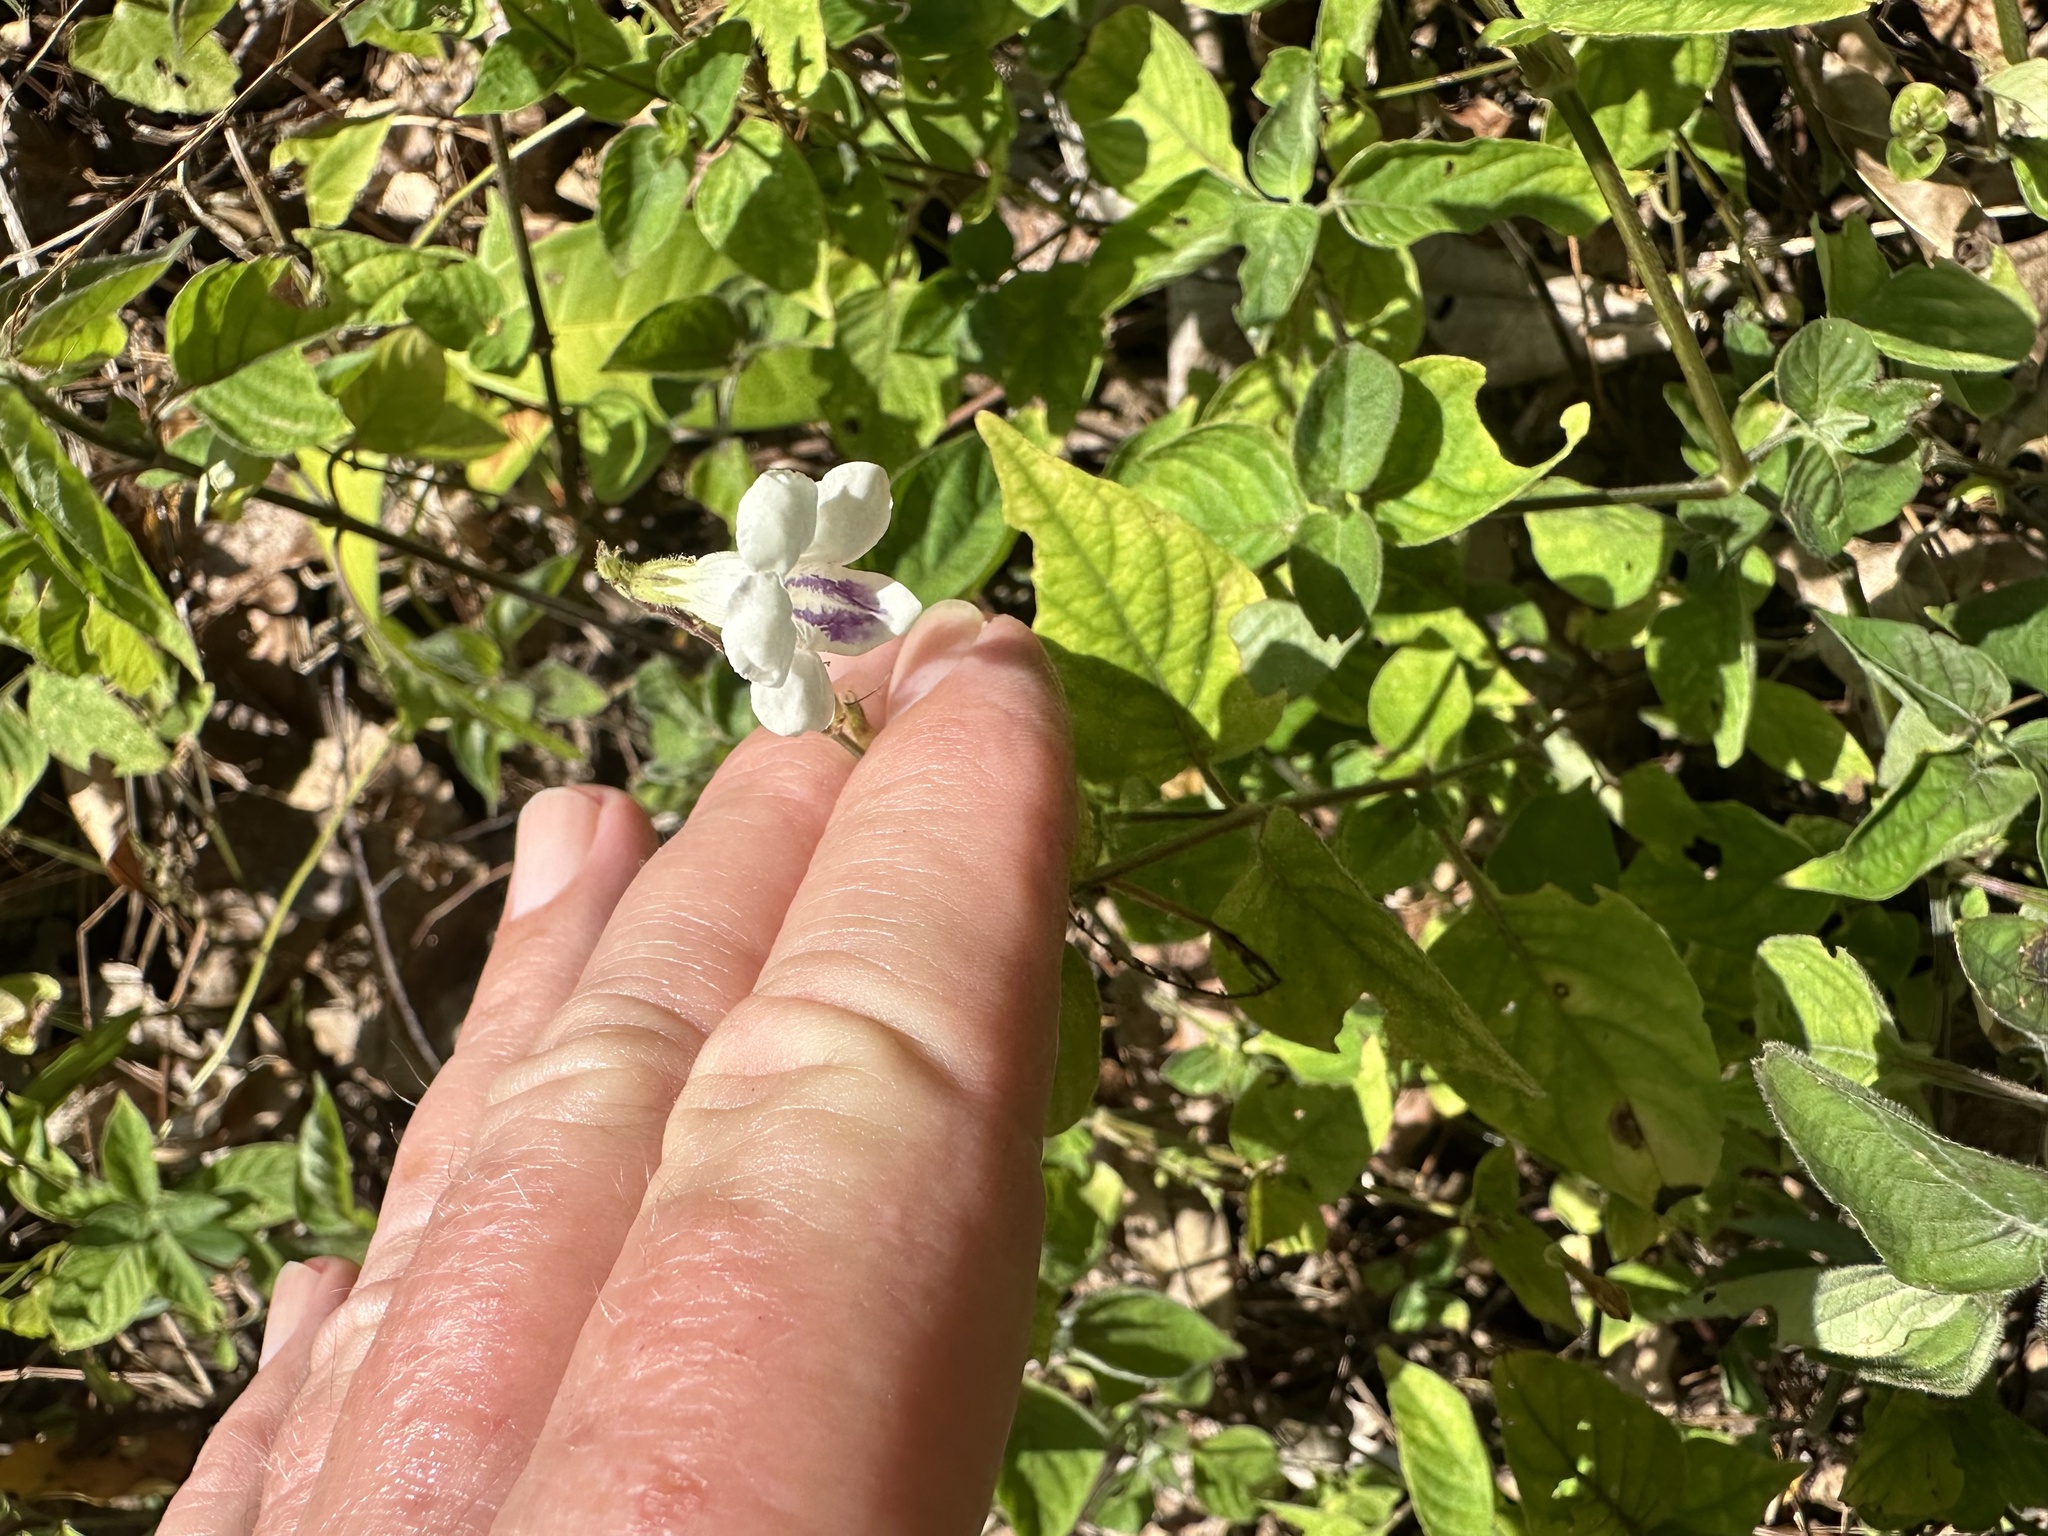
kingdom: Plantae
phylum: Tracheophyta
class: Magnoliopsida
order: Lamiales
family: Acanthaceae
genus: Asystasia
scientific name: Asystasia intrusa
